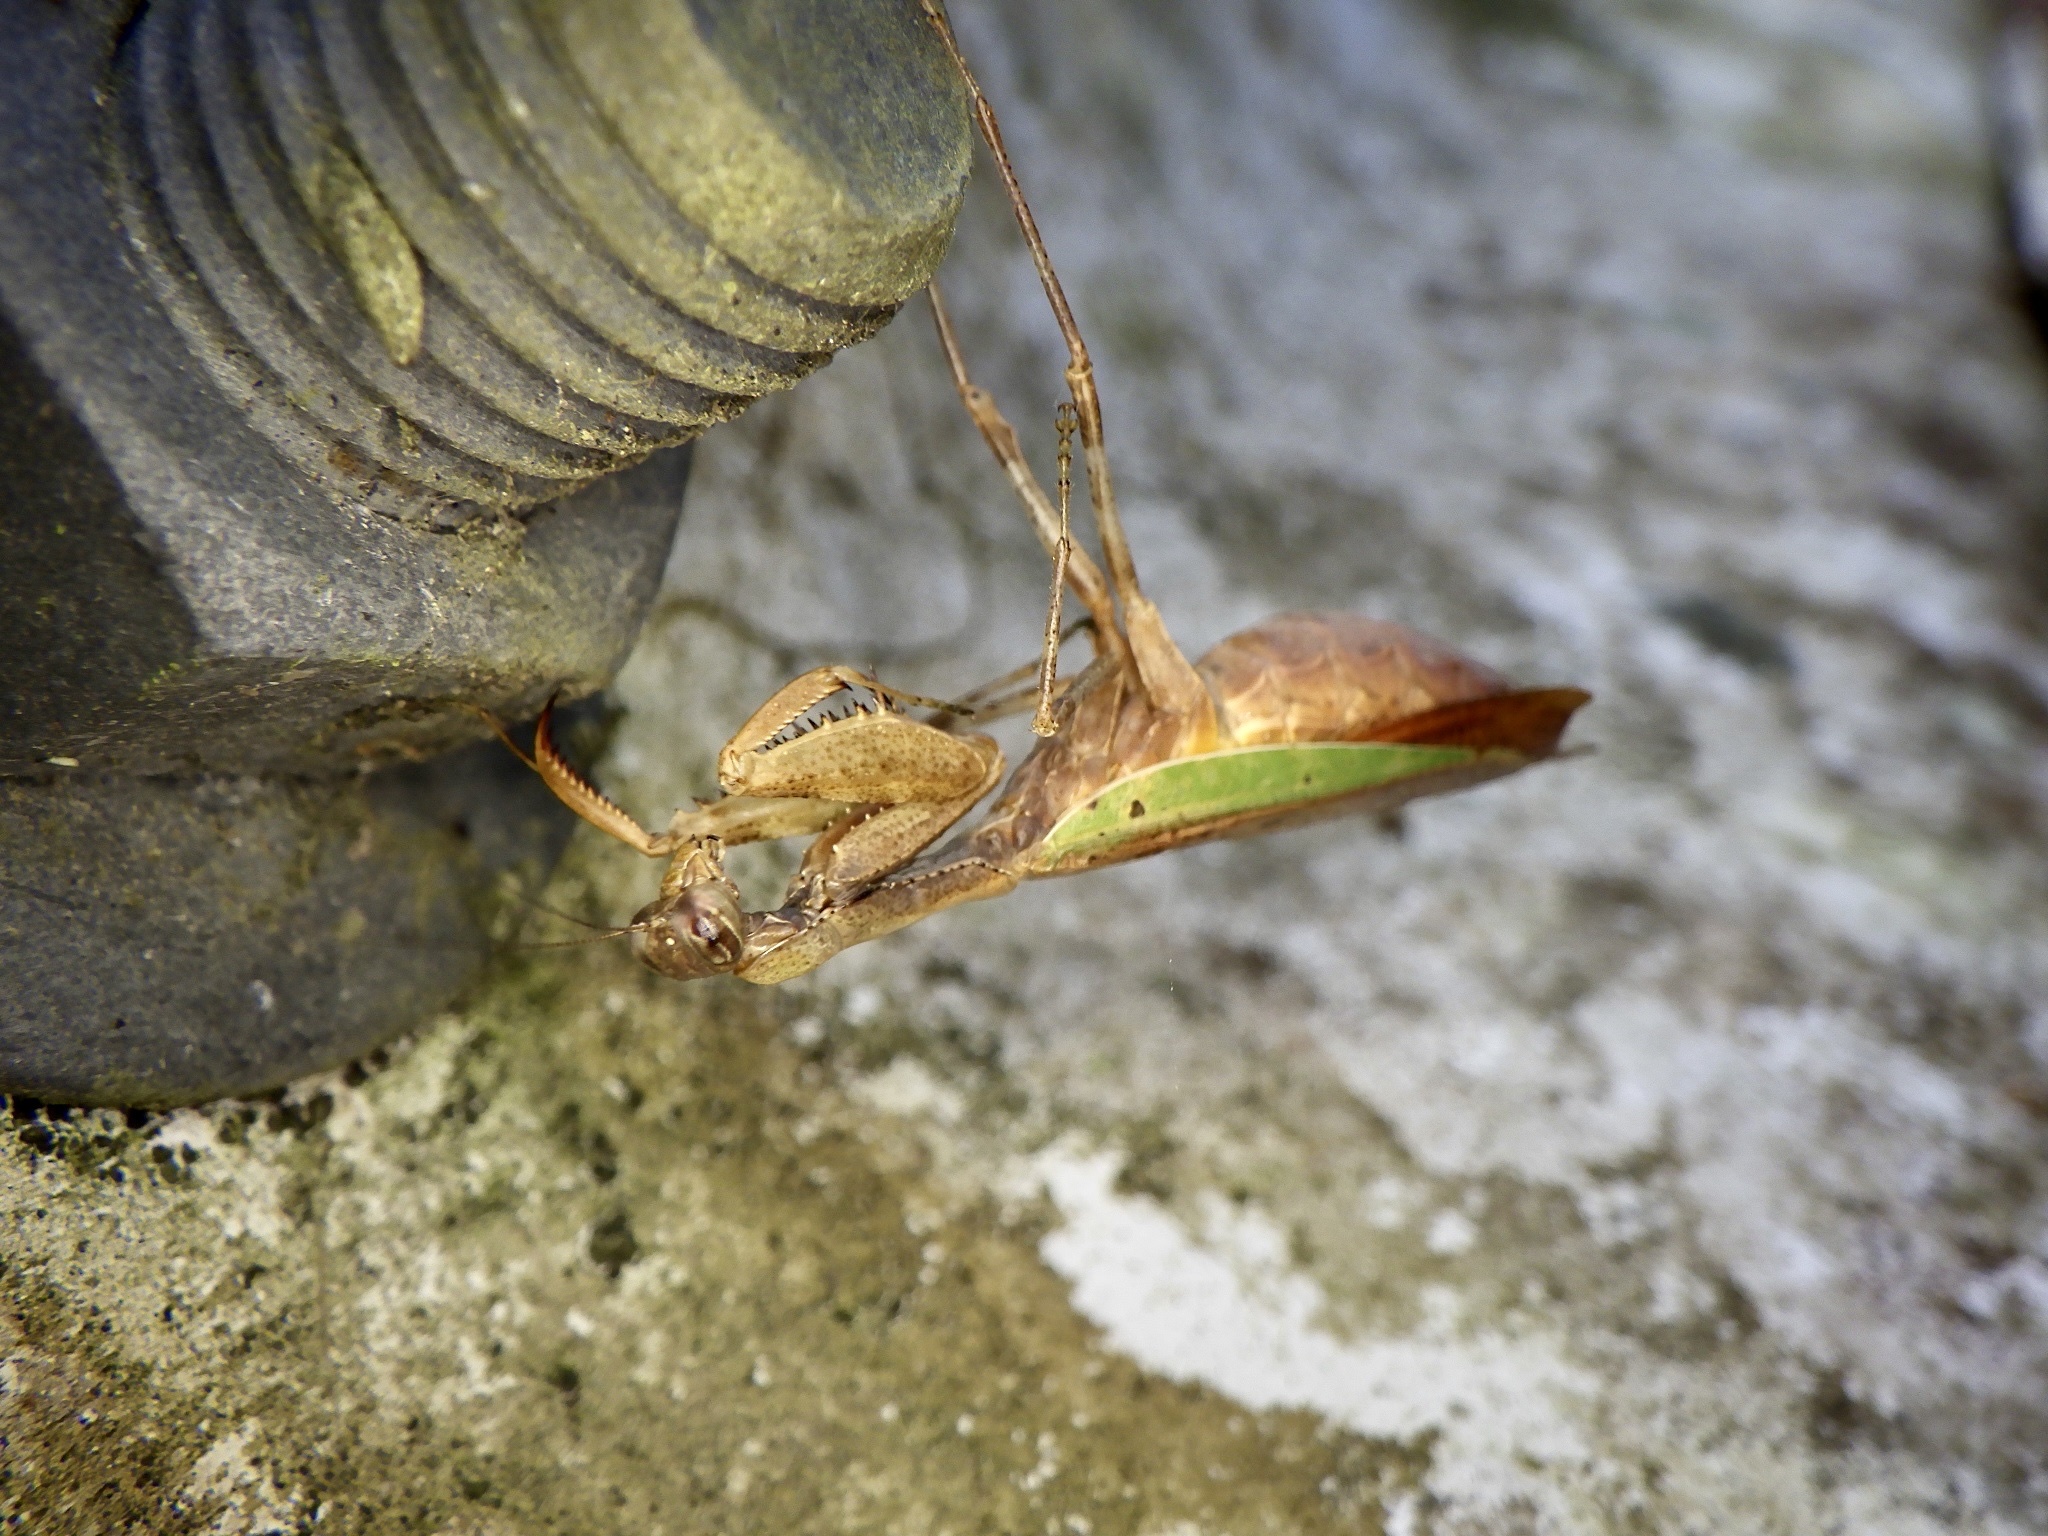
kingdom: Animalia
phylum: Arthropoda
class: Insecta
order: Mantodea
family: Hymenopodidae
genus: Acromantis
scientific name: Acromantis japonica
